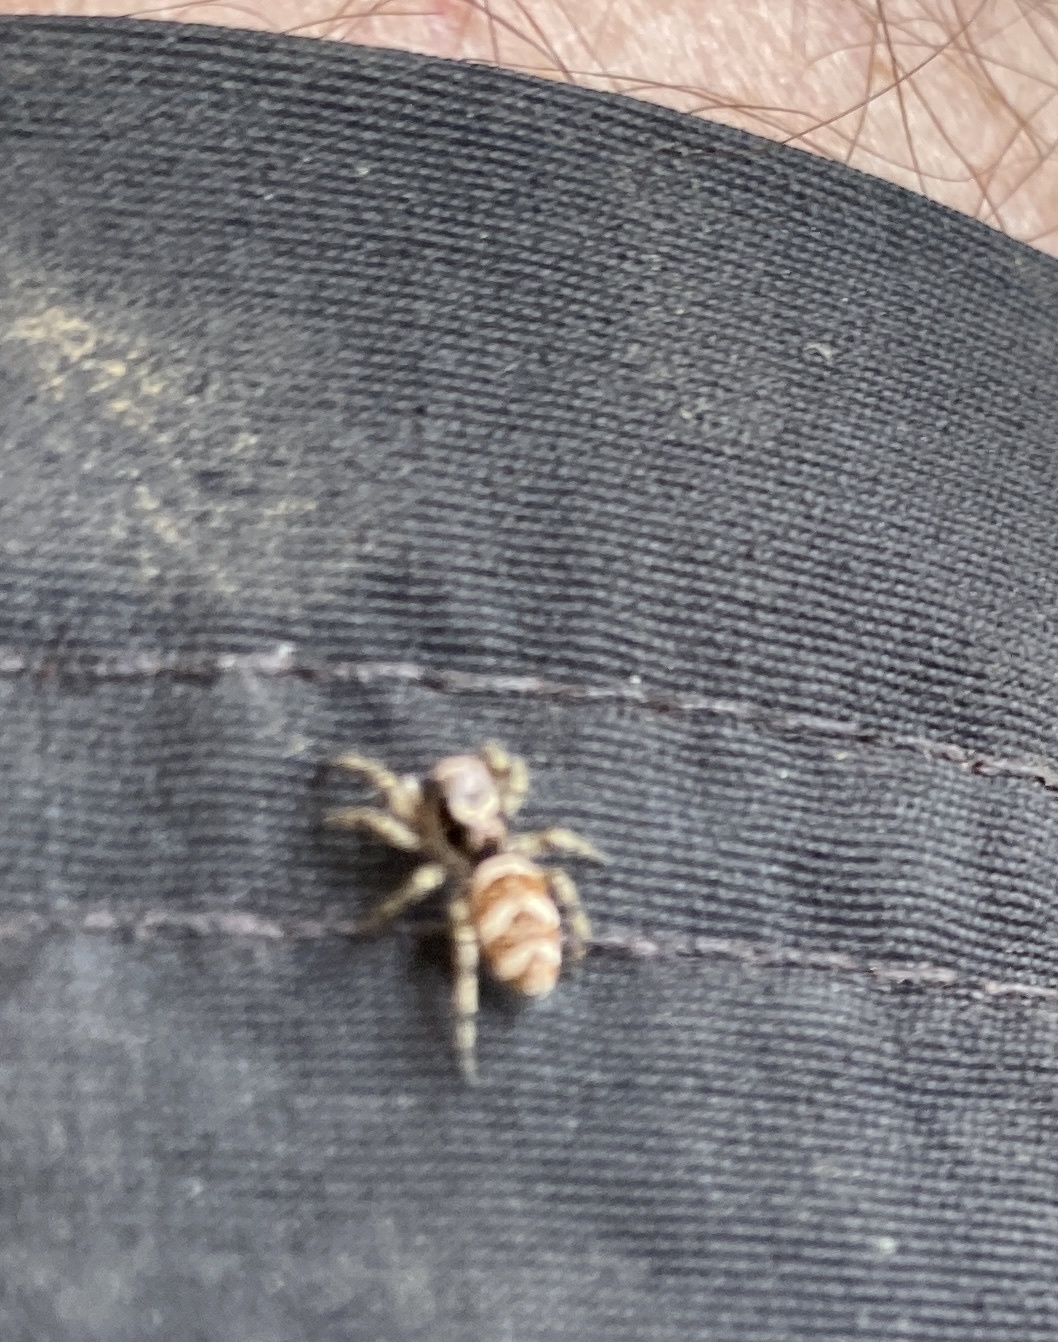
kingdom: Animalia
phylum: Arthropoda
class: Arachnida
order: Araneae
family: Salticidae
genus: Salticus
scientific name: Salticus scenicus
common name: Zebra jumper
